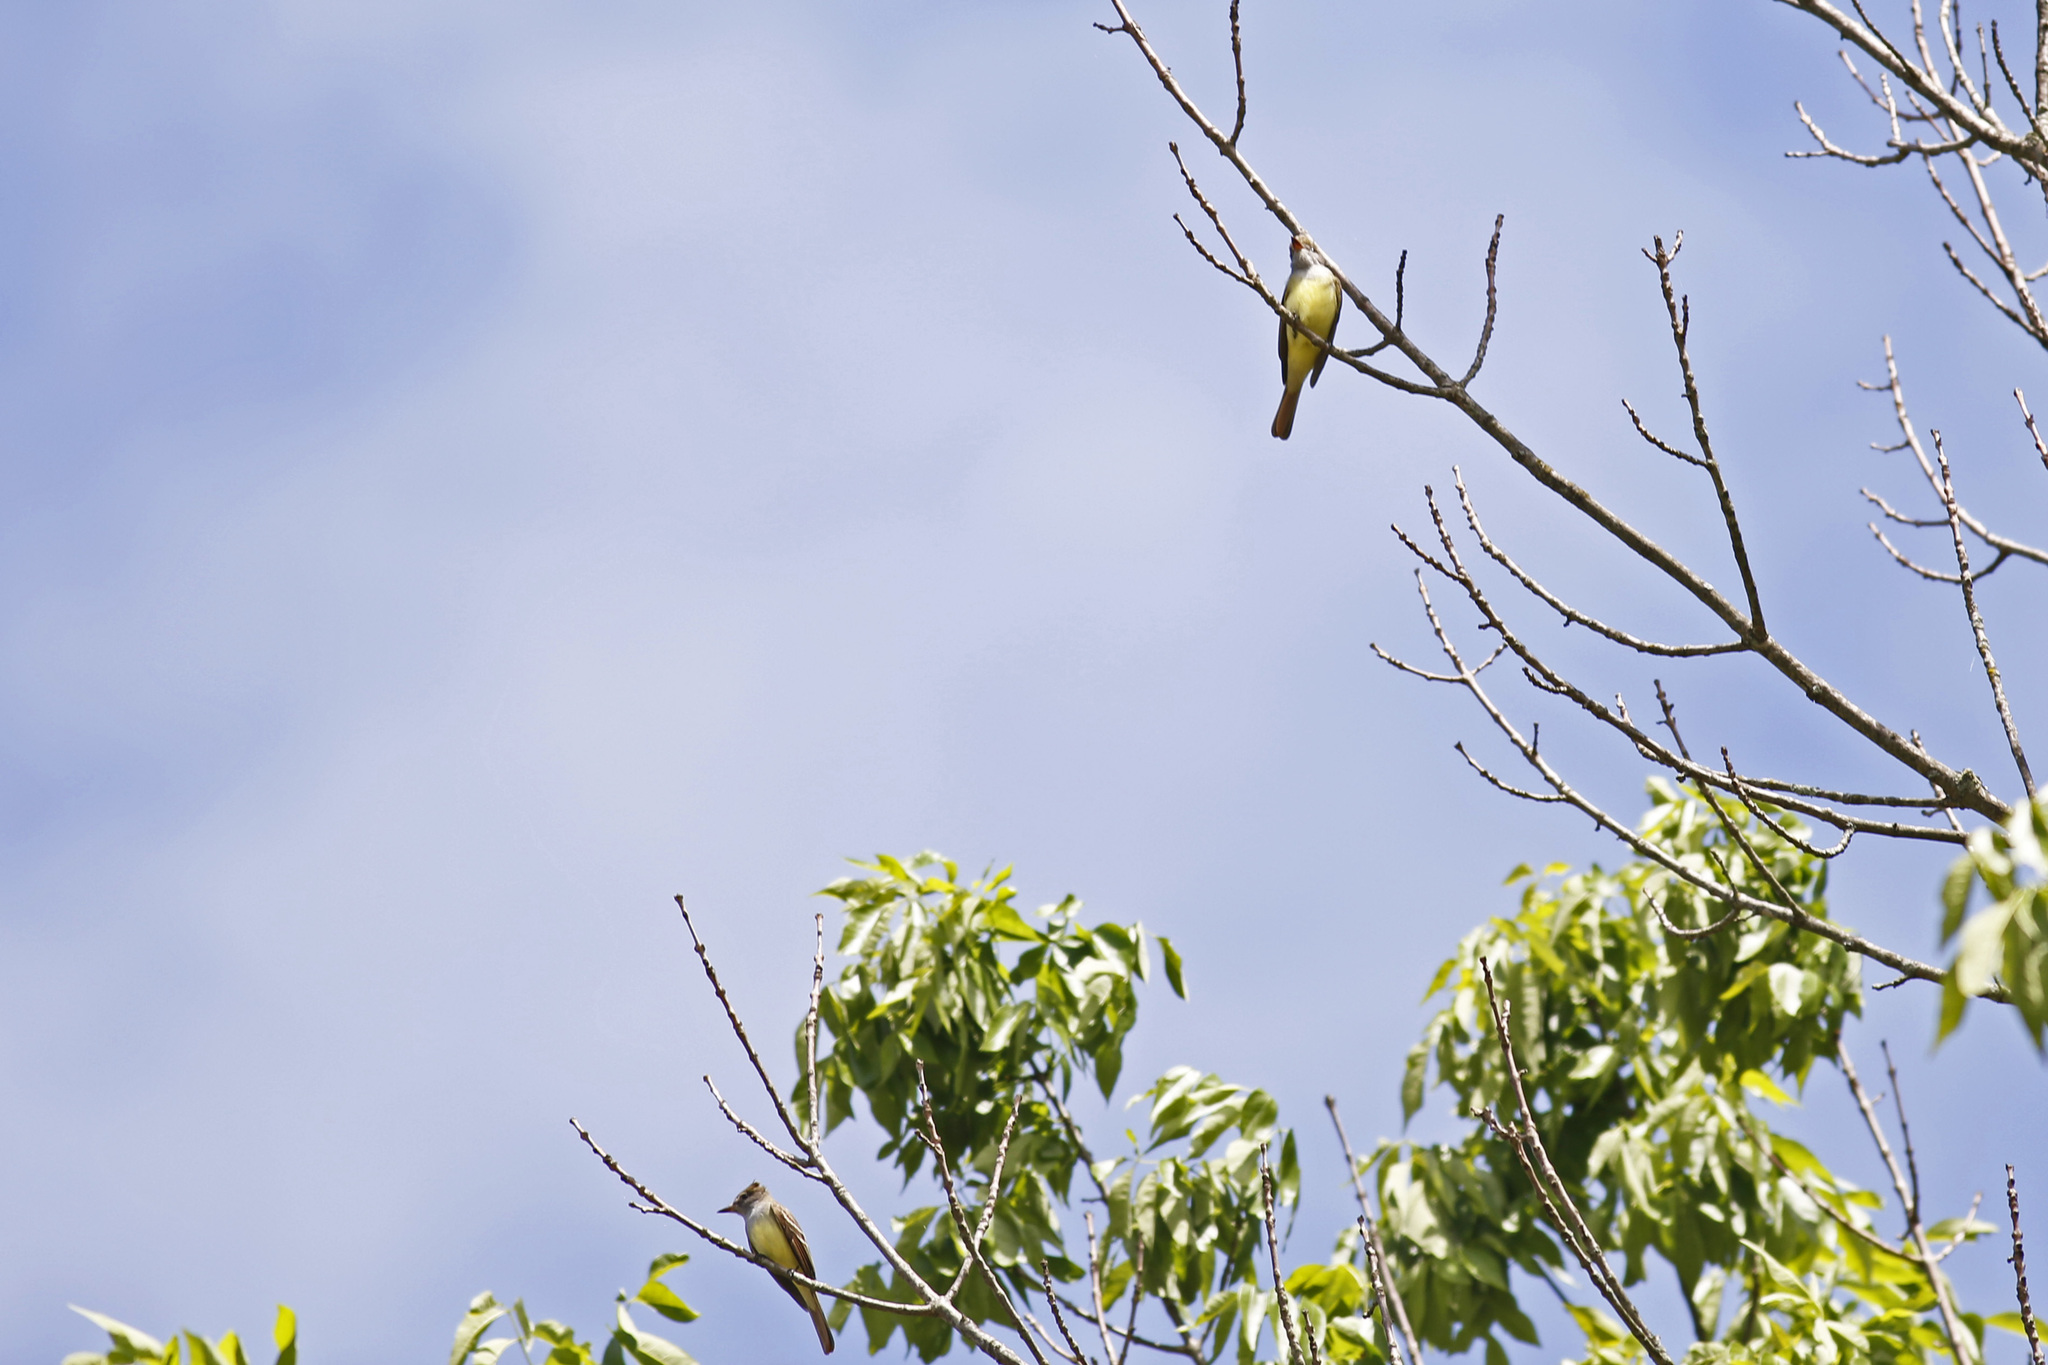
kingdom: Animalia
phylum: Chordata
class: Aves
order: Passeriformes
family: Tyrannidae
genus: Myiarchus
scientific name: Myiarchus crinitus
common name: Great crested flycatcher
